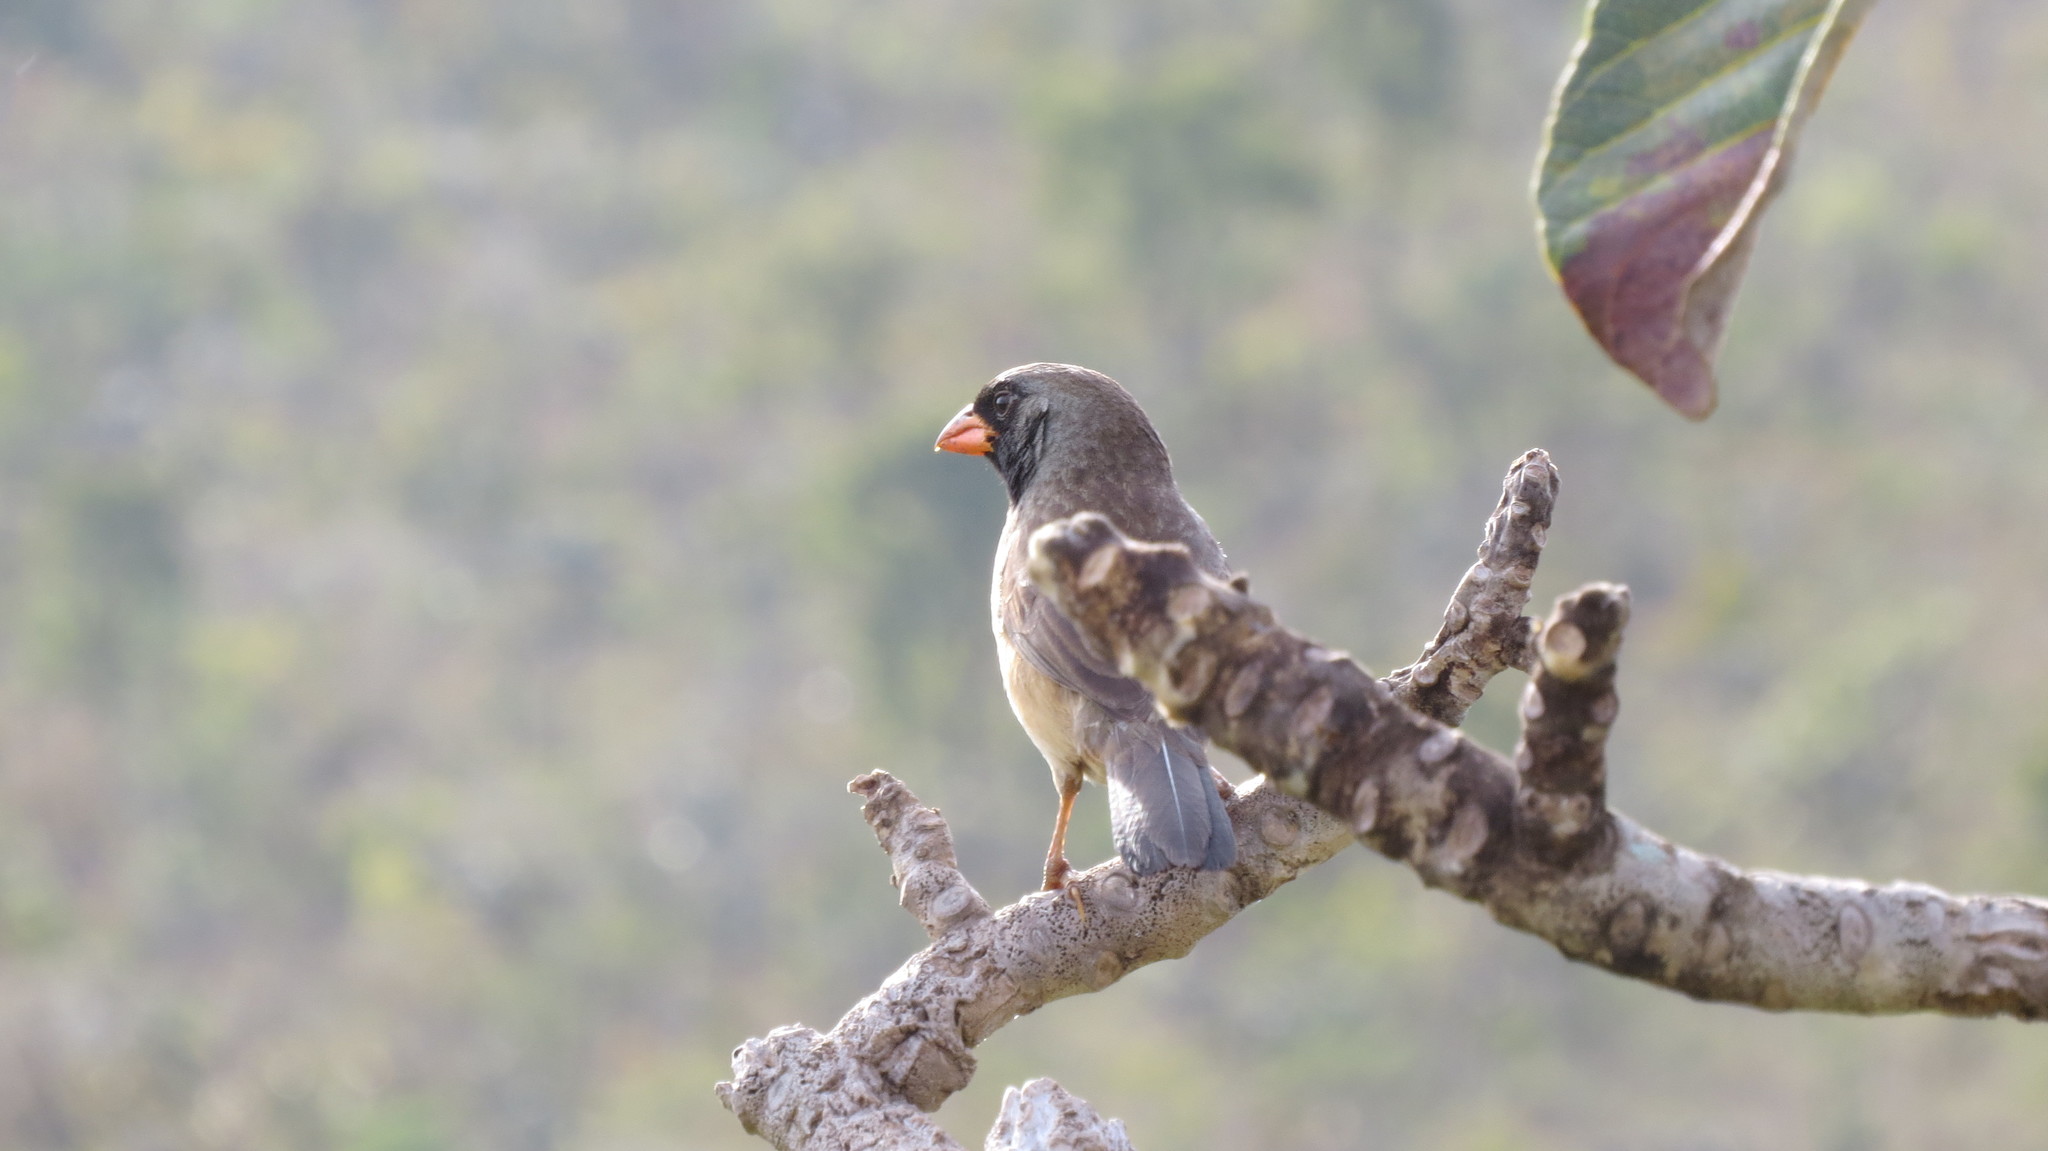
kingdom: Animalia
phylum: Chordata
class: Aves
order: Passeriformes
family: Thraupidae
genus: Saltatricula
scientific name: Saltatricula atricollis
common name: Black-throated saltator
